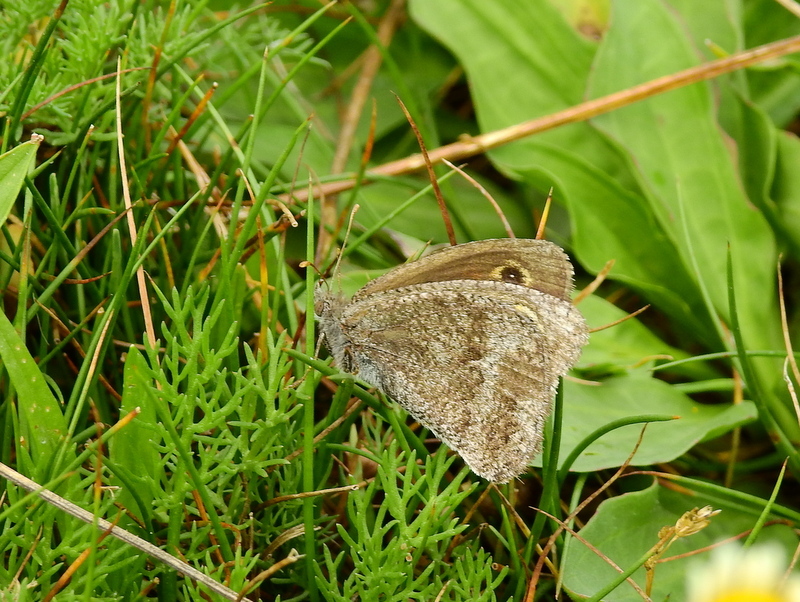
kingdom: Animalia
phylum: Arthropoda
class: Insecta
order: Lepidoptera
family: Nymphalidae
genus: Pampasatyrus
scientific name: Pampasatyrus yacantoensis
